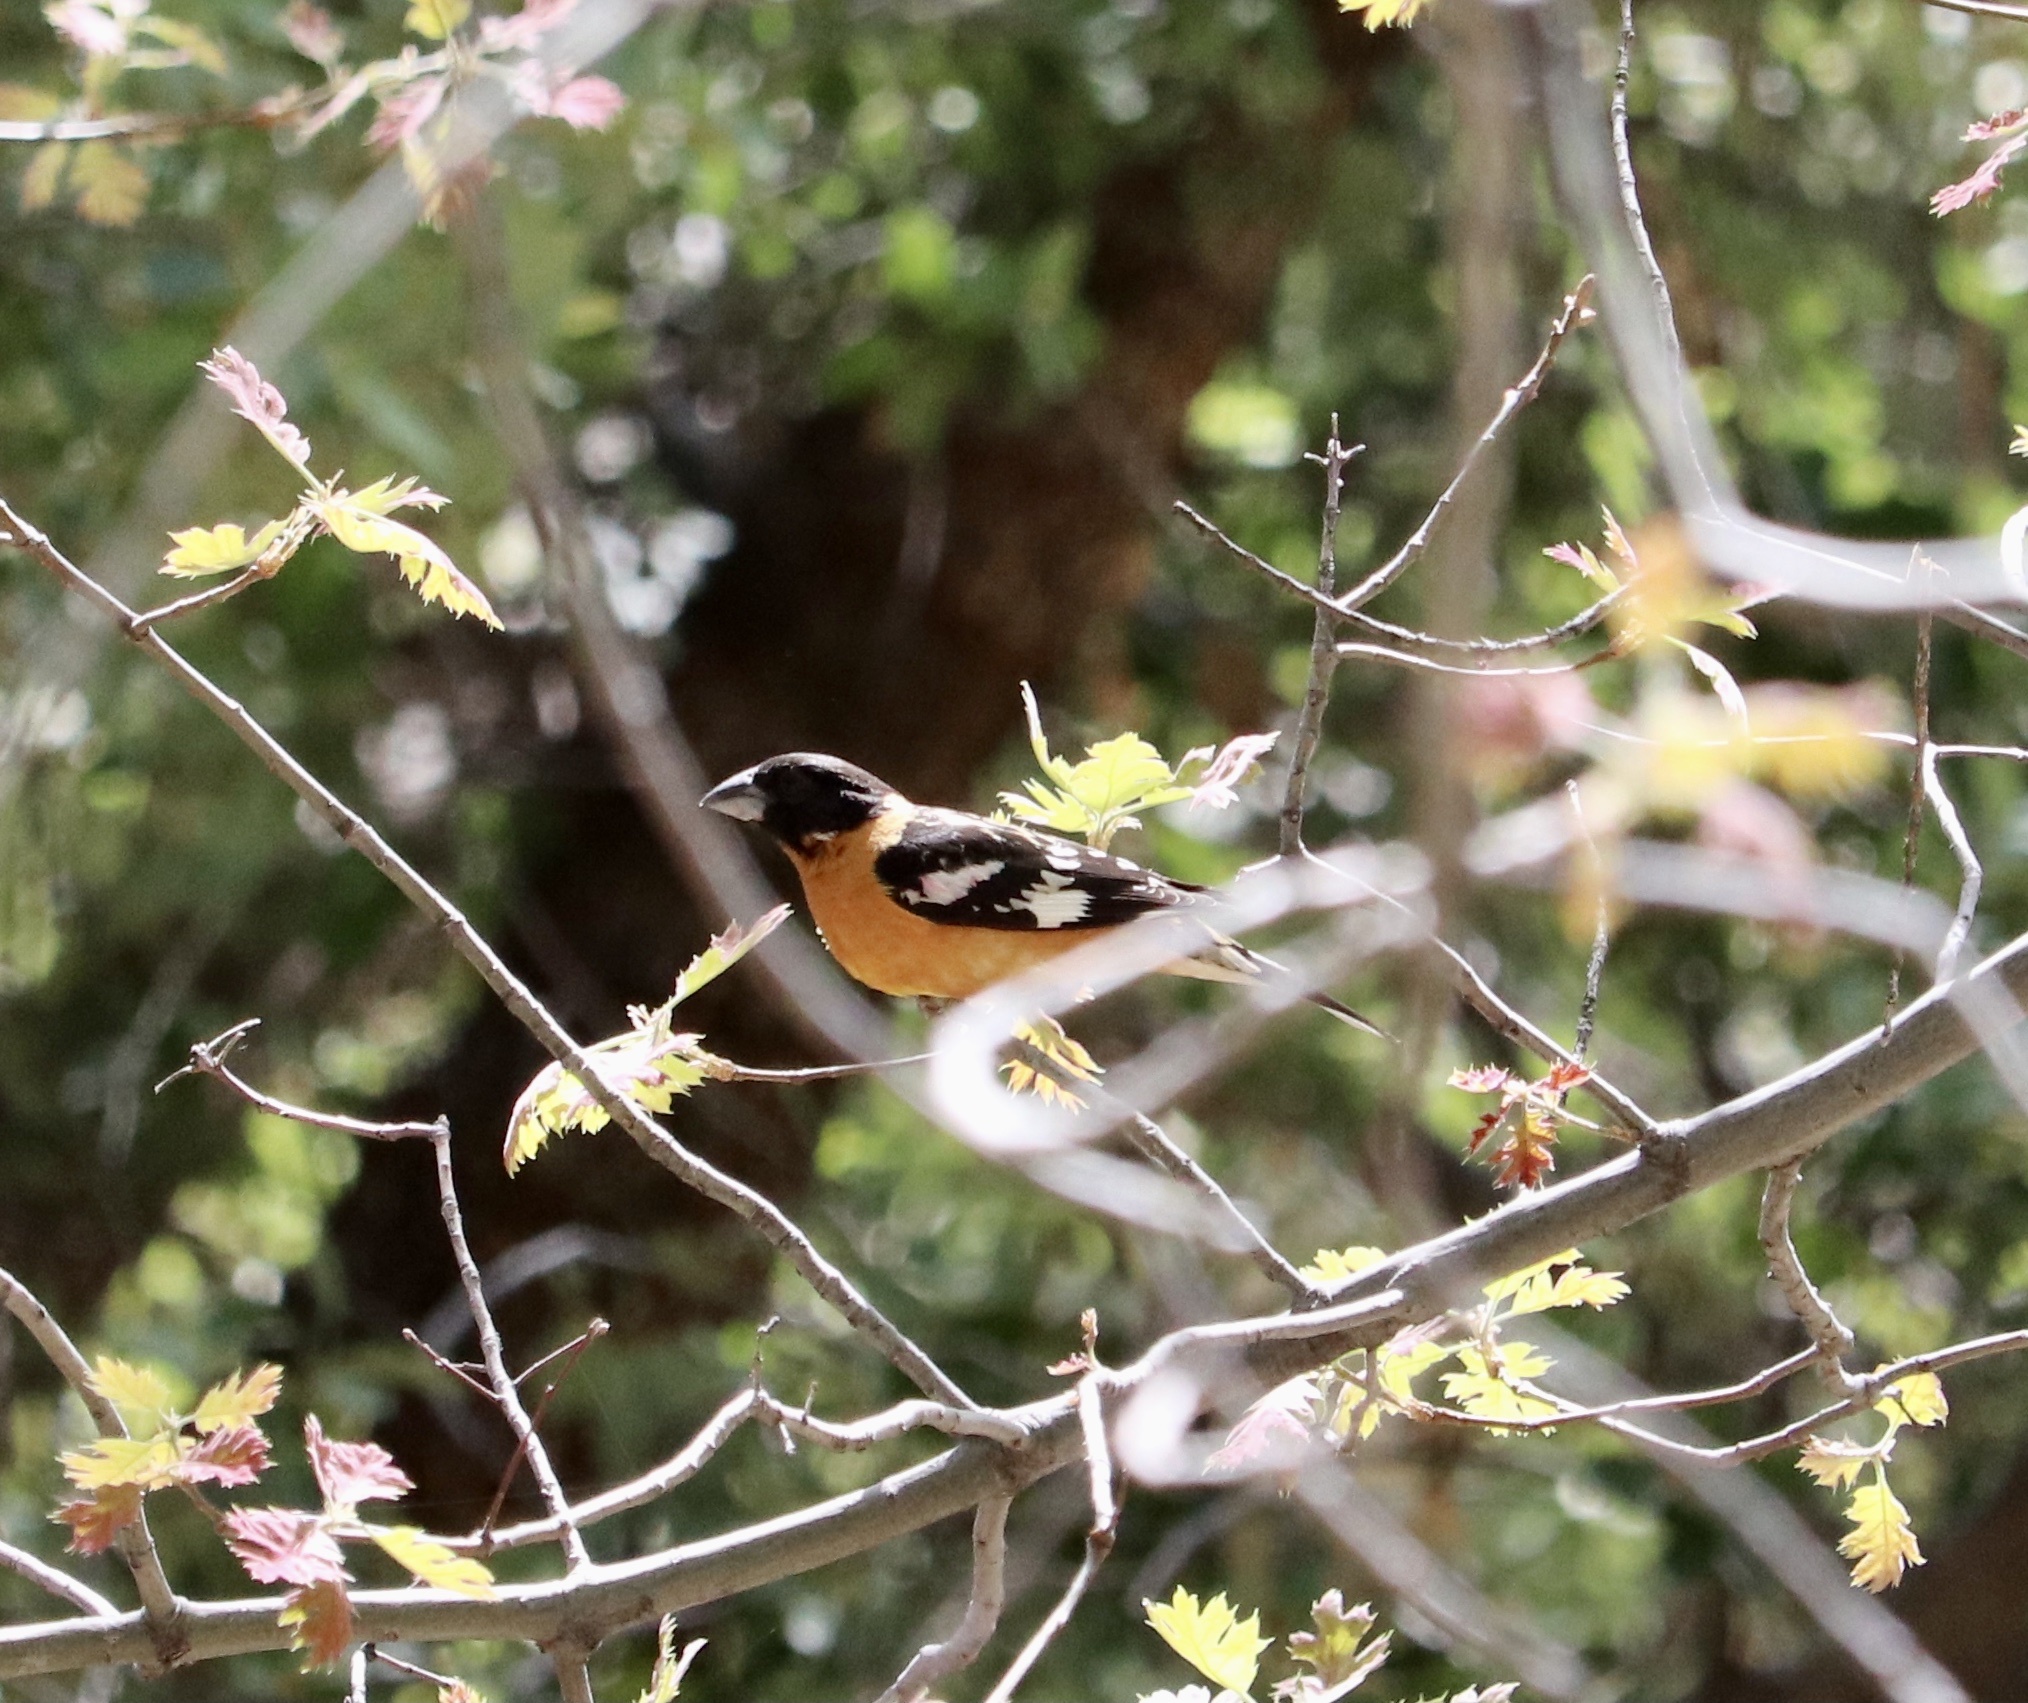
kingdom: Animalia
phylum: Chordata
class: Aves
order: Passeriformes
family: Cardinalidae
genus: Pheucticus
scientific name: Pheucticus melanocephalus
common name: Black-headed grosbeak
